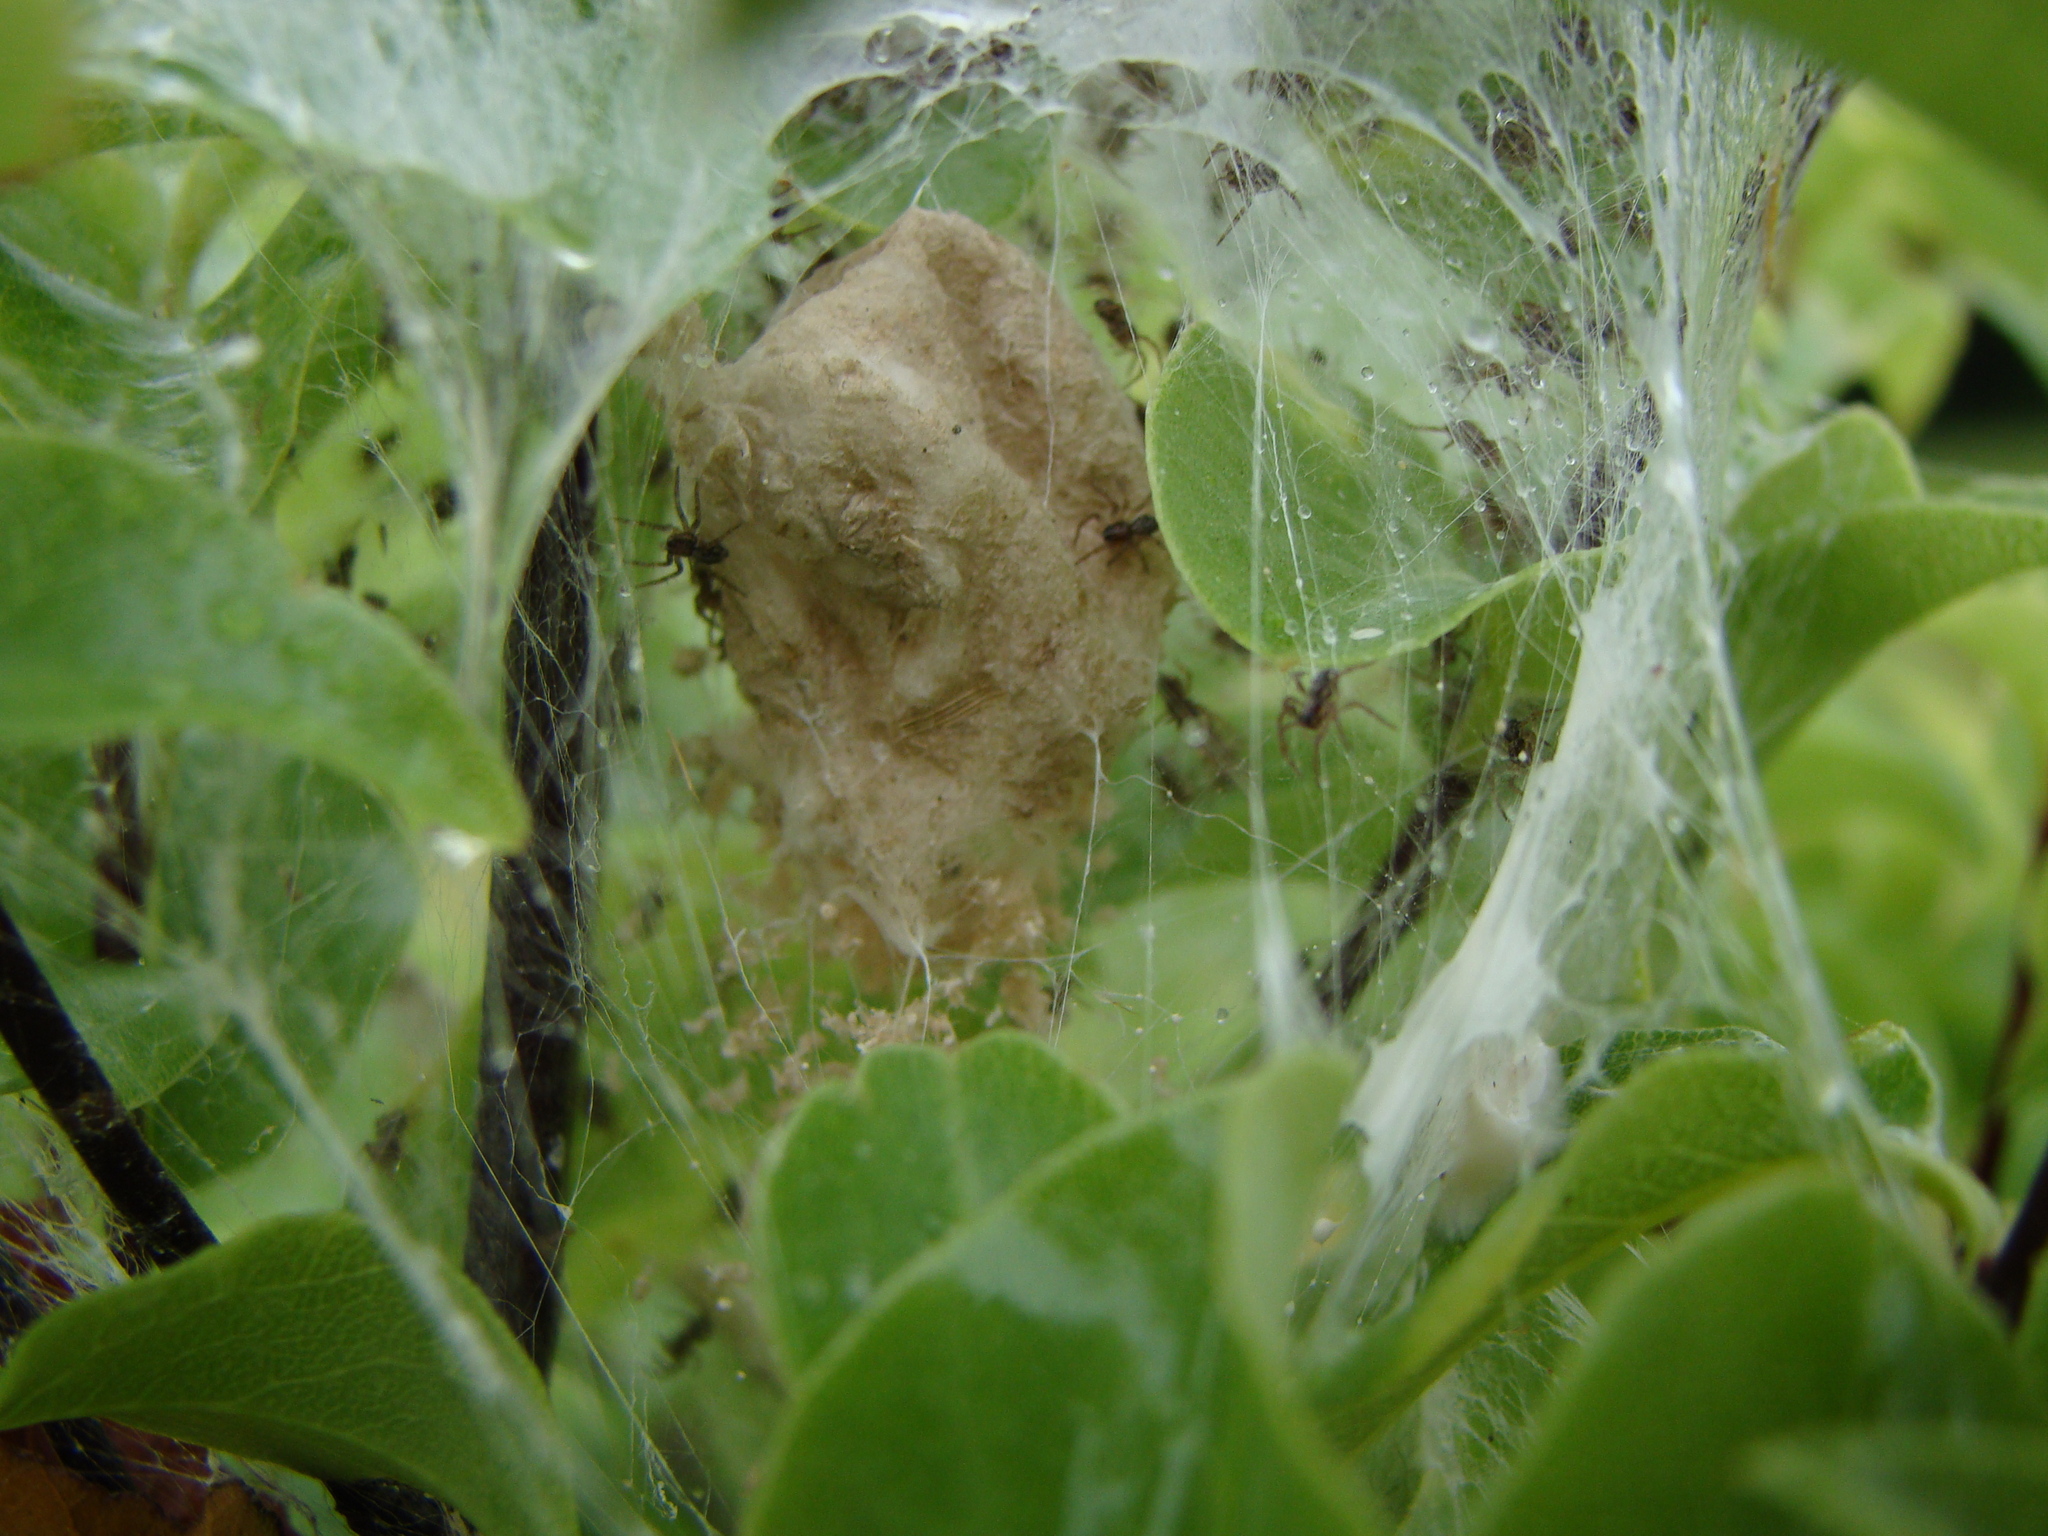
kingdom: Animalia
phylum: Arthropoda
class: Arachnida
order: Araneae
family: Pisauridae
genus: Dolomedes
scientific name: Dolomedes minor
